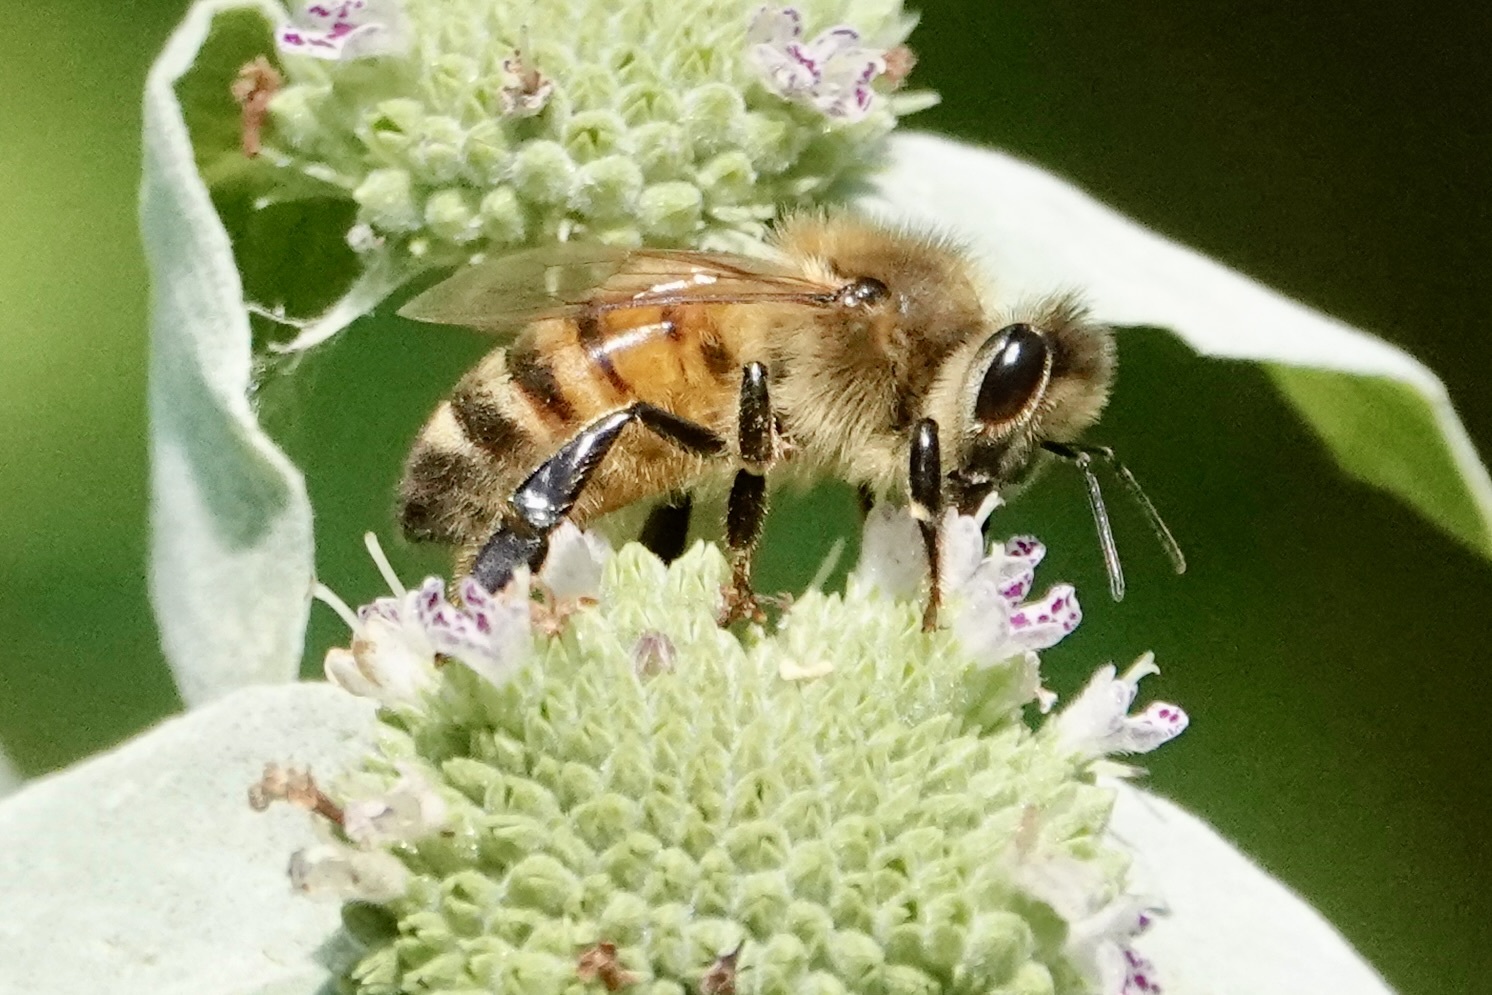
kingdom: Animalia
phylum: Arthropoda
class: Insecta
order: Hymenoptera
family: Apidae
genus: Apis
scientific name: Apis mellifera
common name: Honey bee
